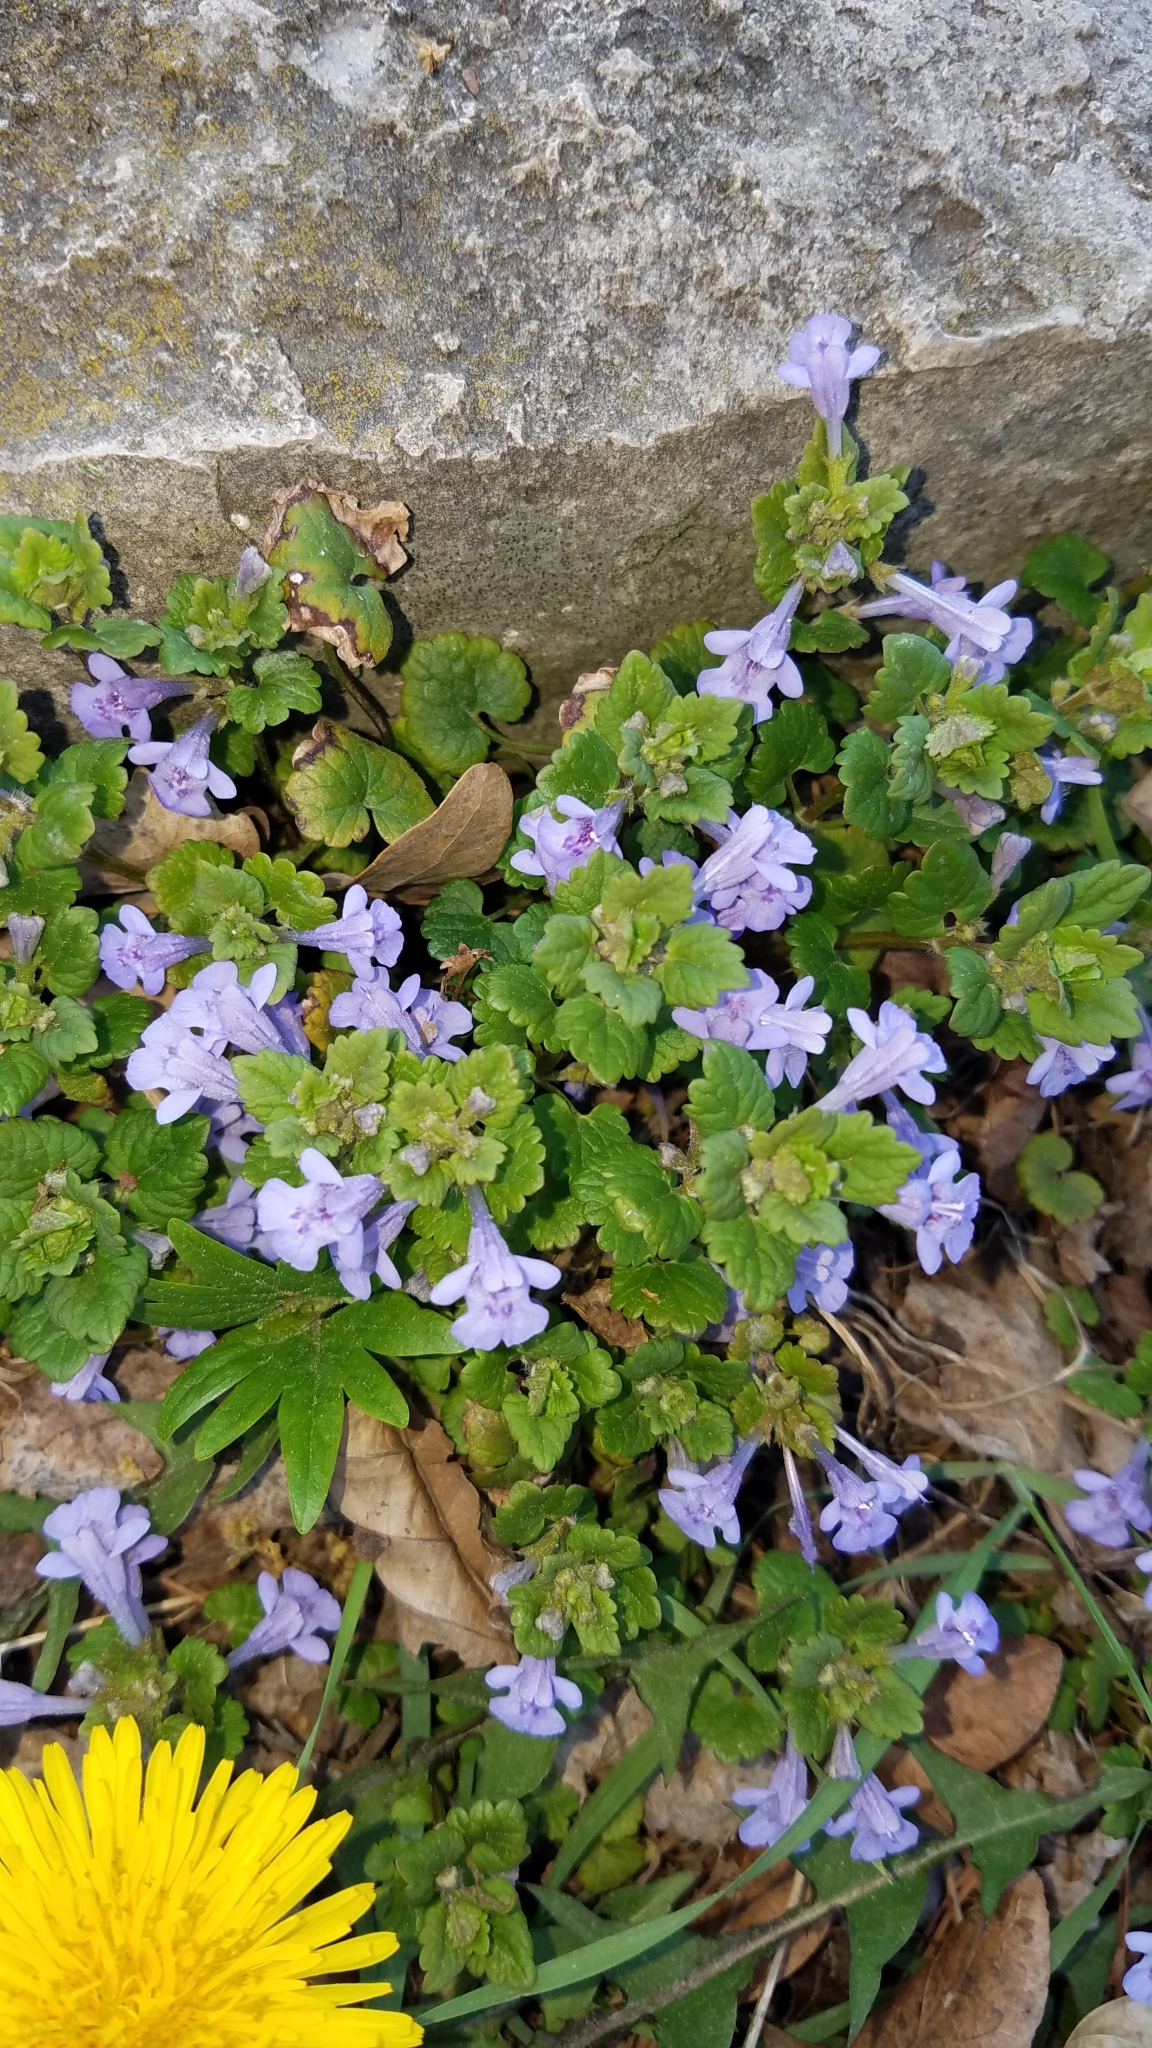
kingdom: Plantae
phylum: Tracheophyta
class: Magnoliopsida
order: Lamiales
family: Lamiaceae
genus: Glechoma
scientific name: Glechoma hederacea
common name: Ground ivy
